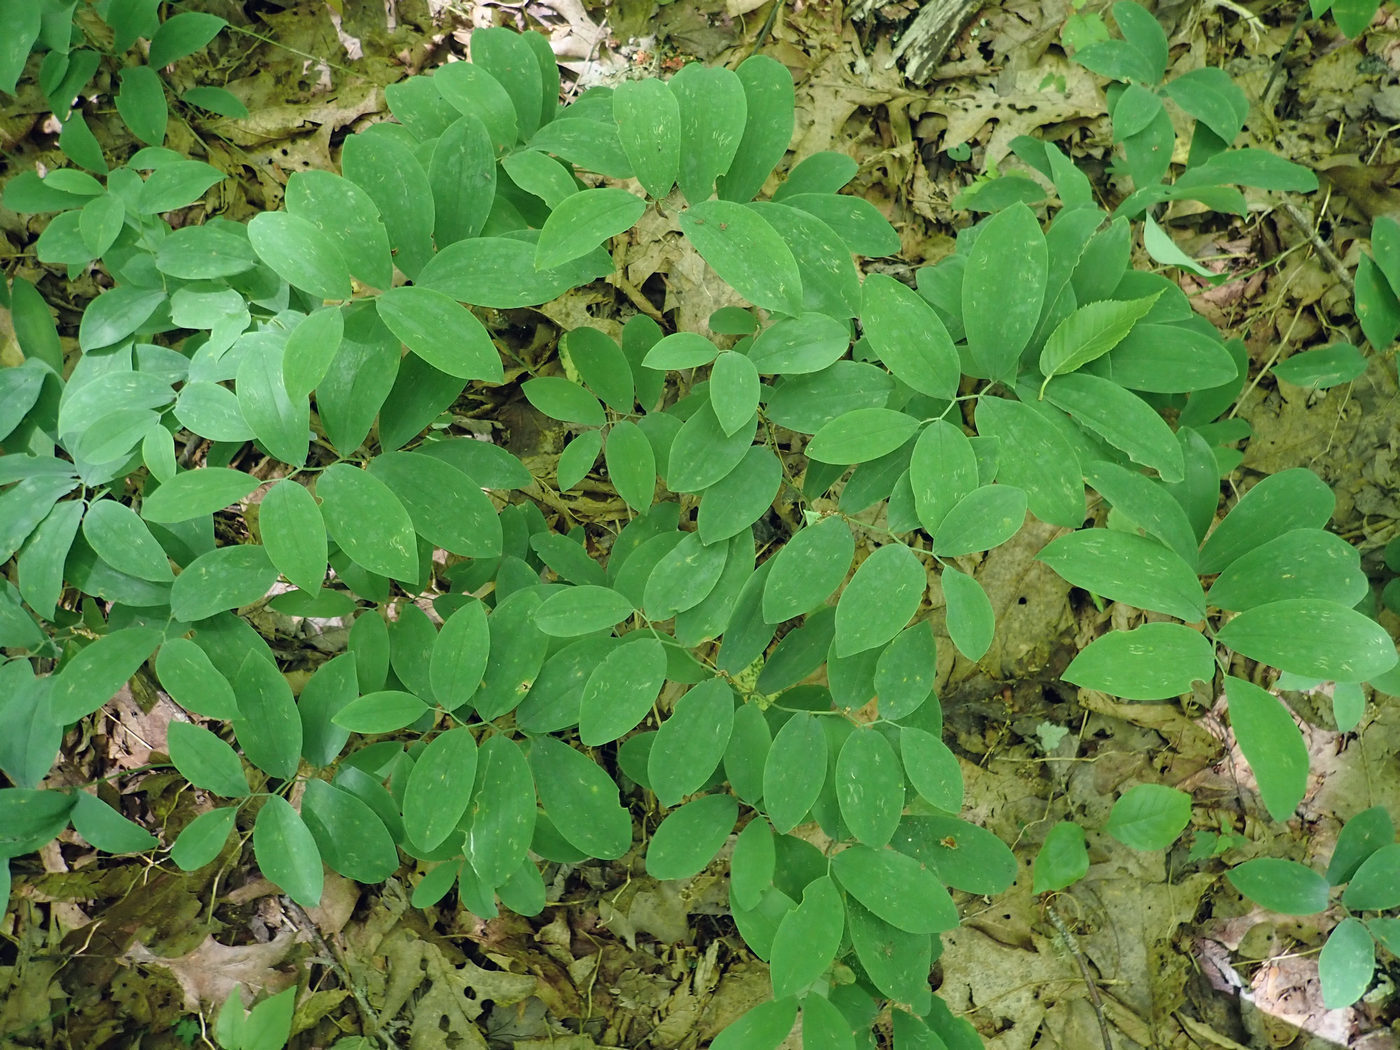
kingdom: Plantae
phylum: Tracheophyta
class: Liliopsida
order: Liliales
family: Colchicaceae
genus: Uvularia
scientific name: Uvularia sessilifolia
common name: Straw-lily
